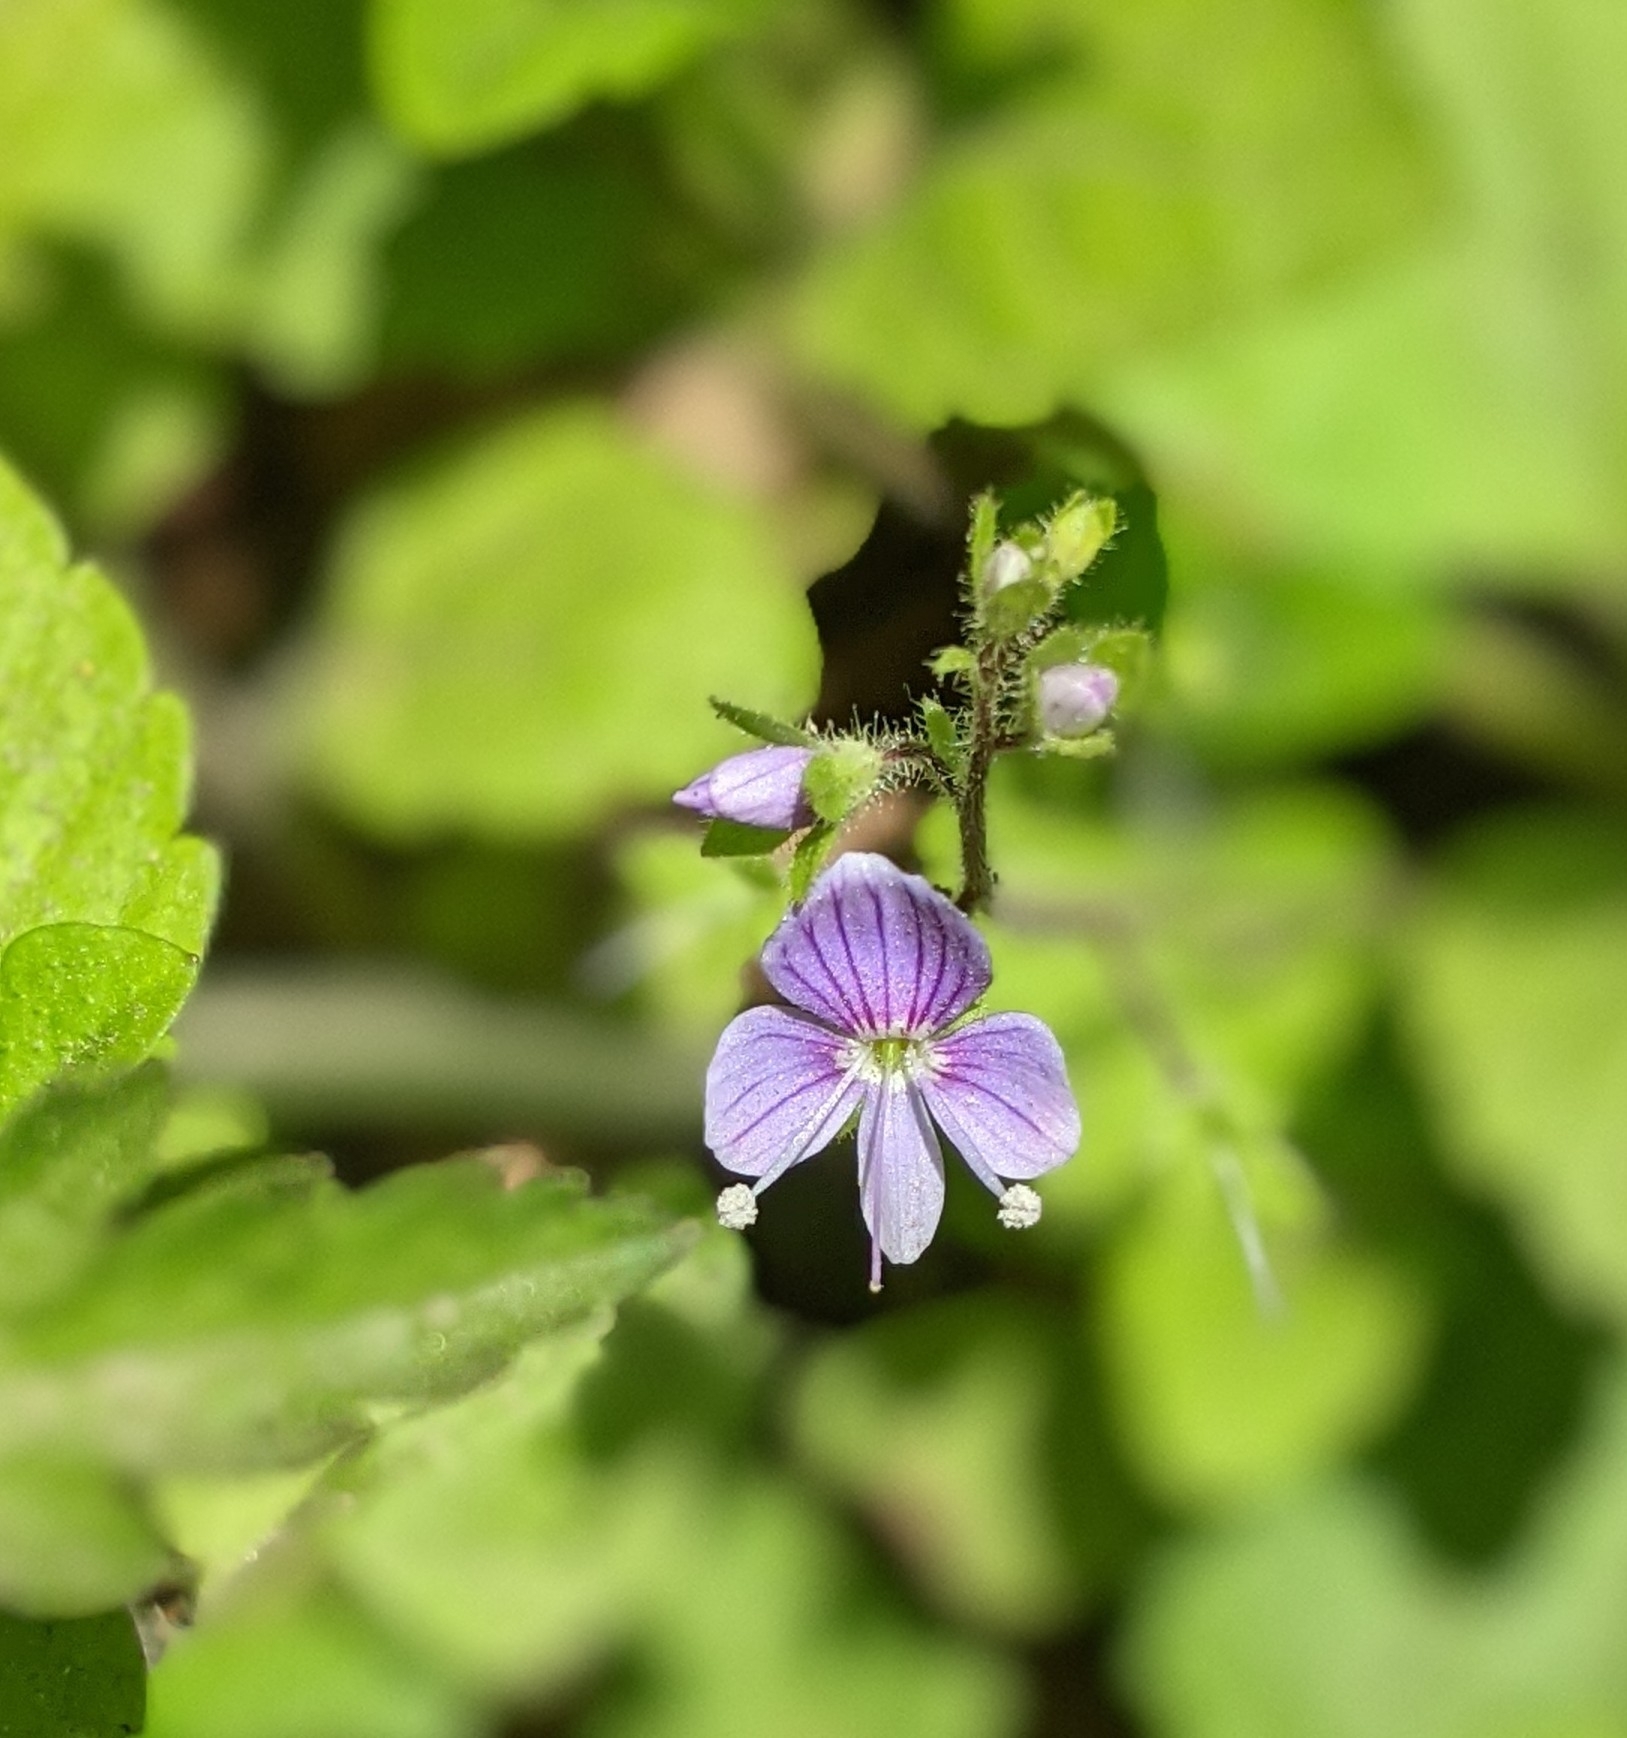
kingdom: Plantae
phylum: Tracheophyta
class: Magnoliopsida
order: Lamiales
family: Plantaginaceae
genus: Veronica
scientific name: Veronica montana
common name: Wood speedwell
